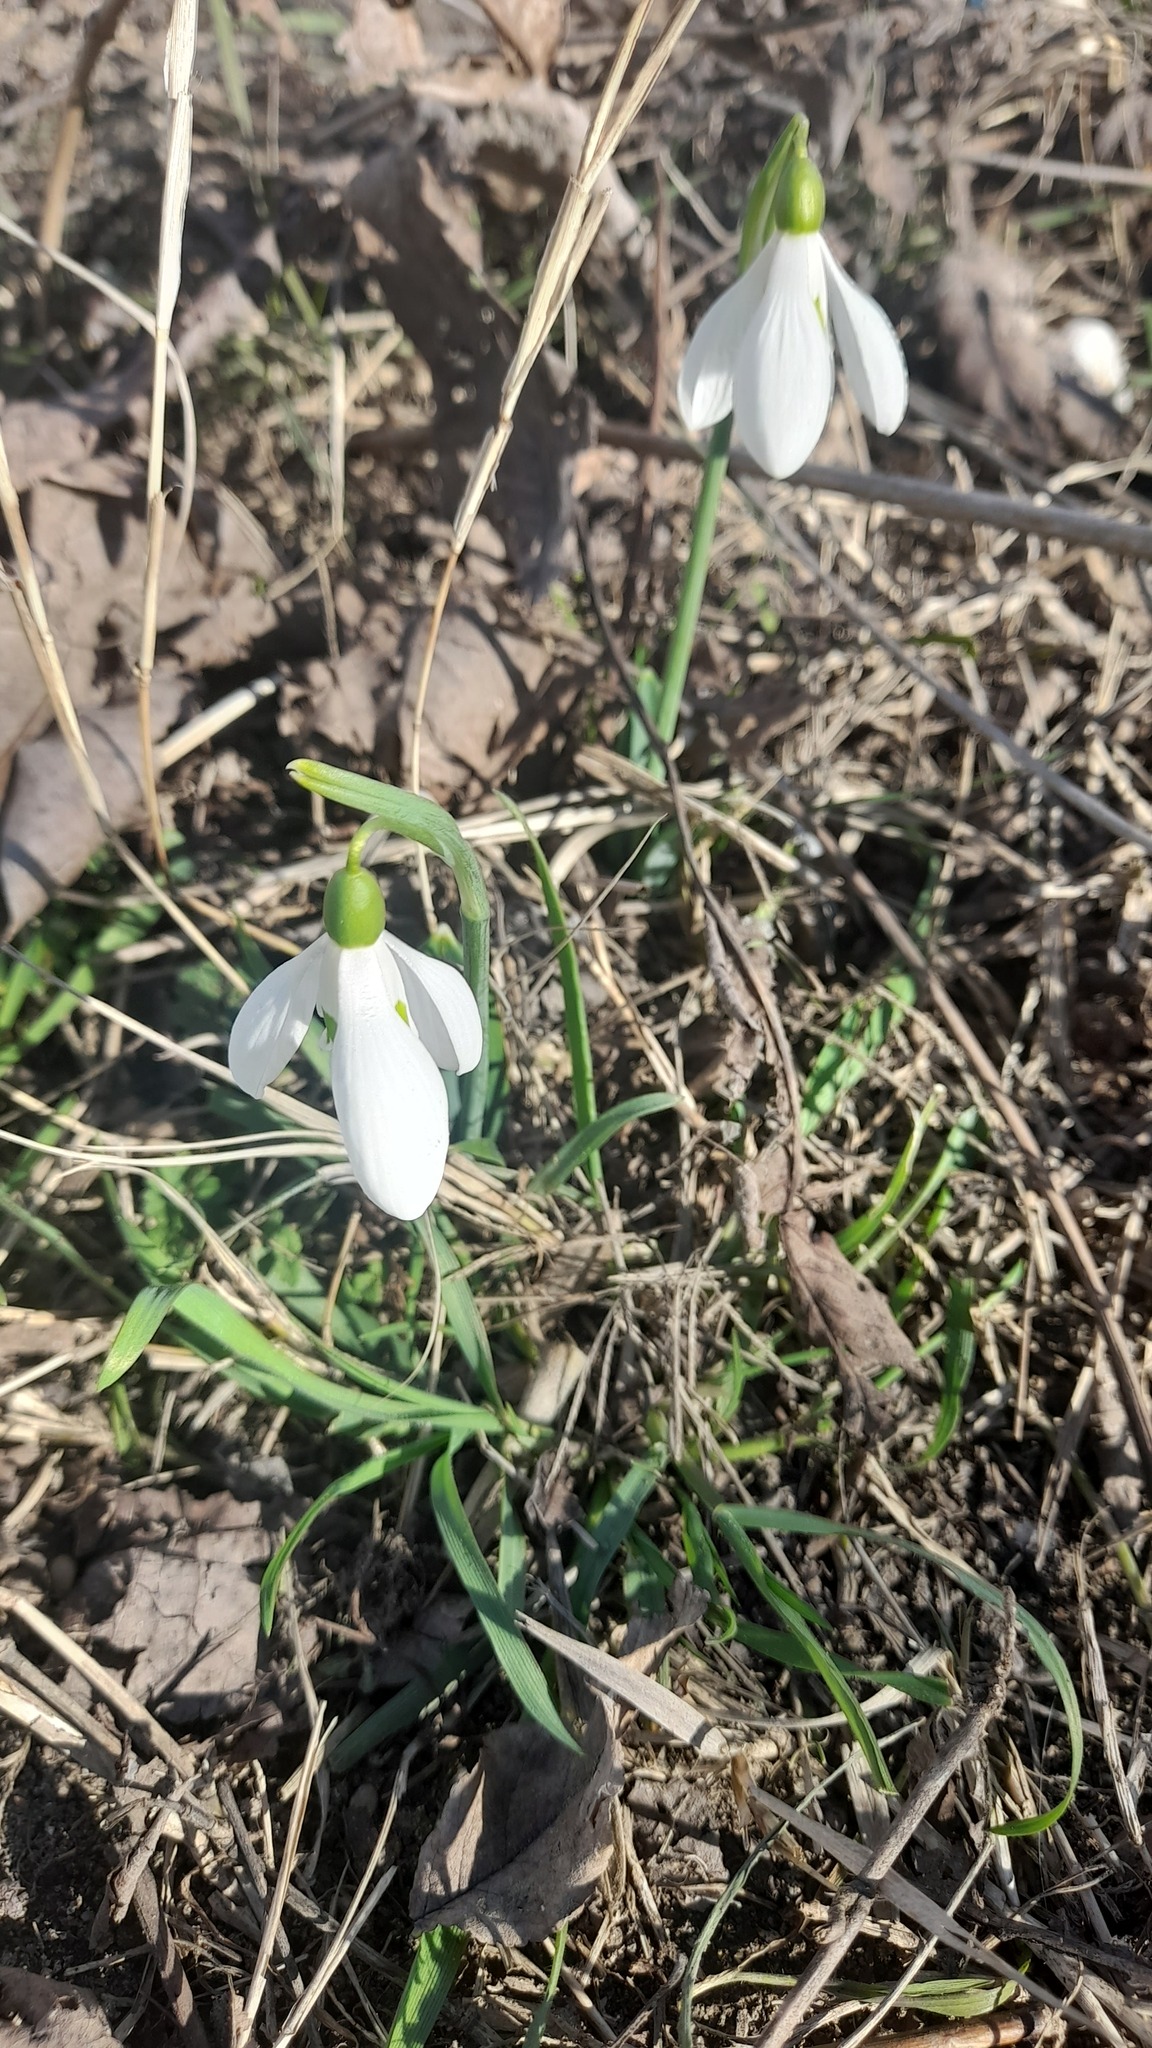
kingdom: Plantae
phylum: Tracheophyta
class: Liliopsida
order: Asparagales
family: Amaryllidaceae
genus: Galanthus
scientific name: Galanthus plicatus
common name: Pleated snowdrop
